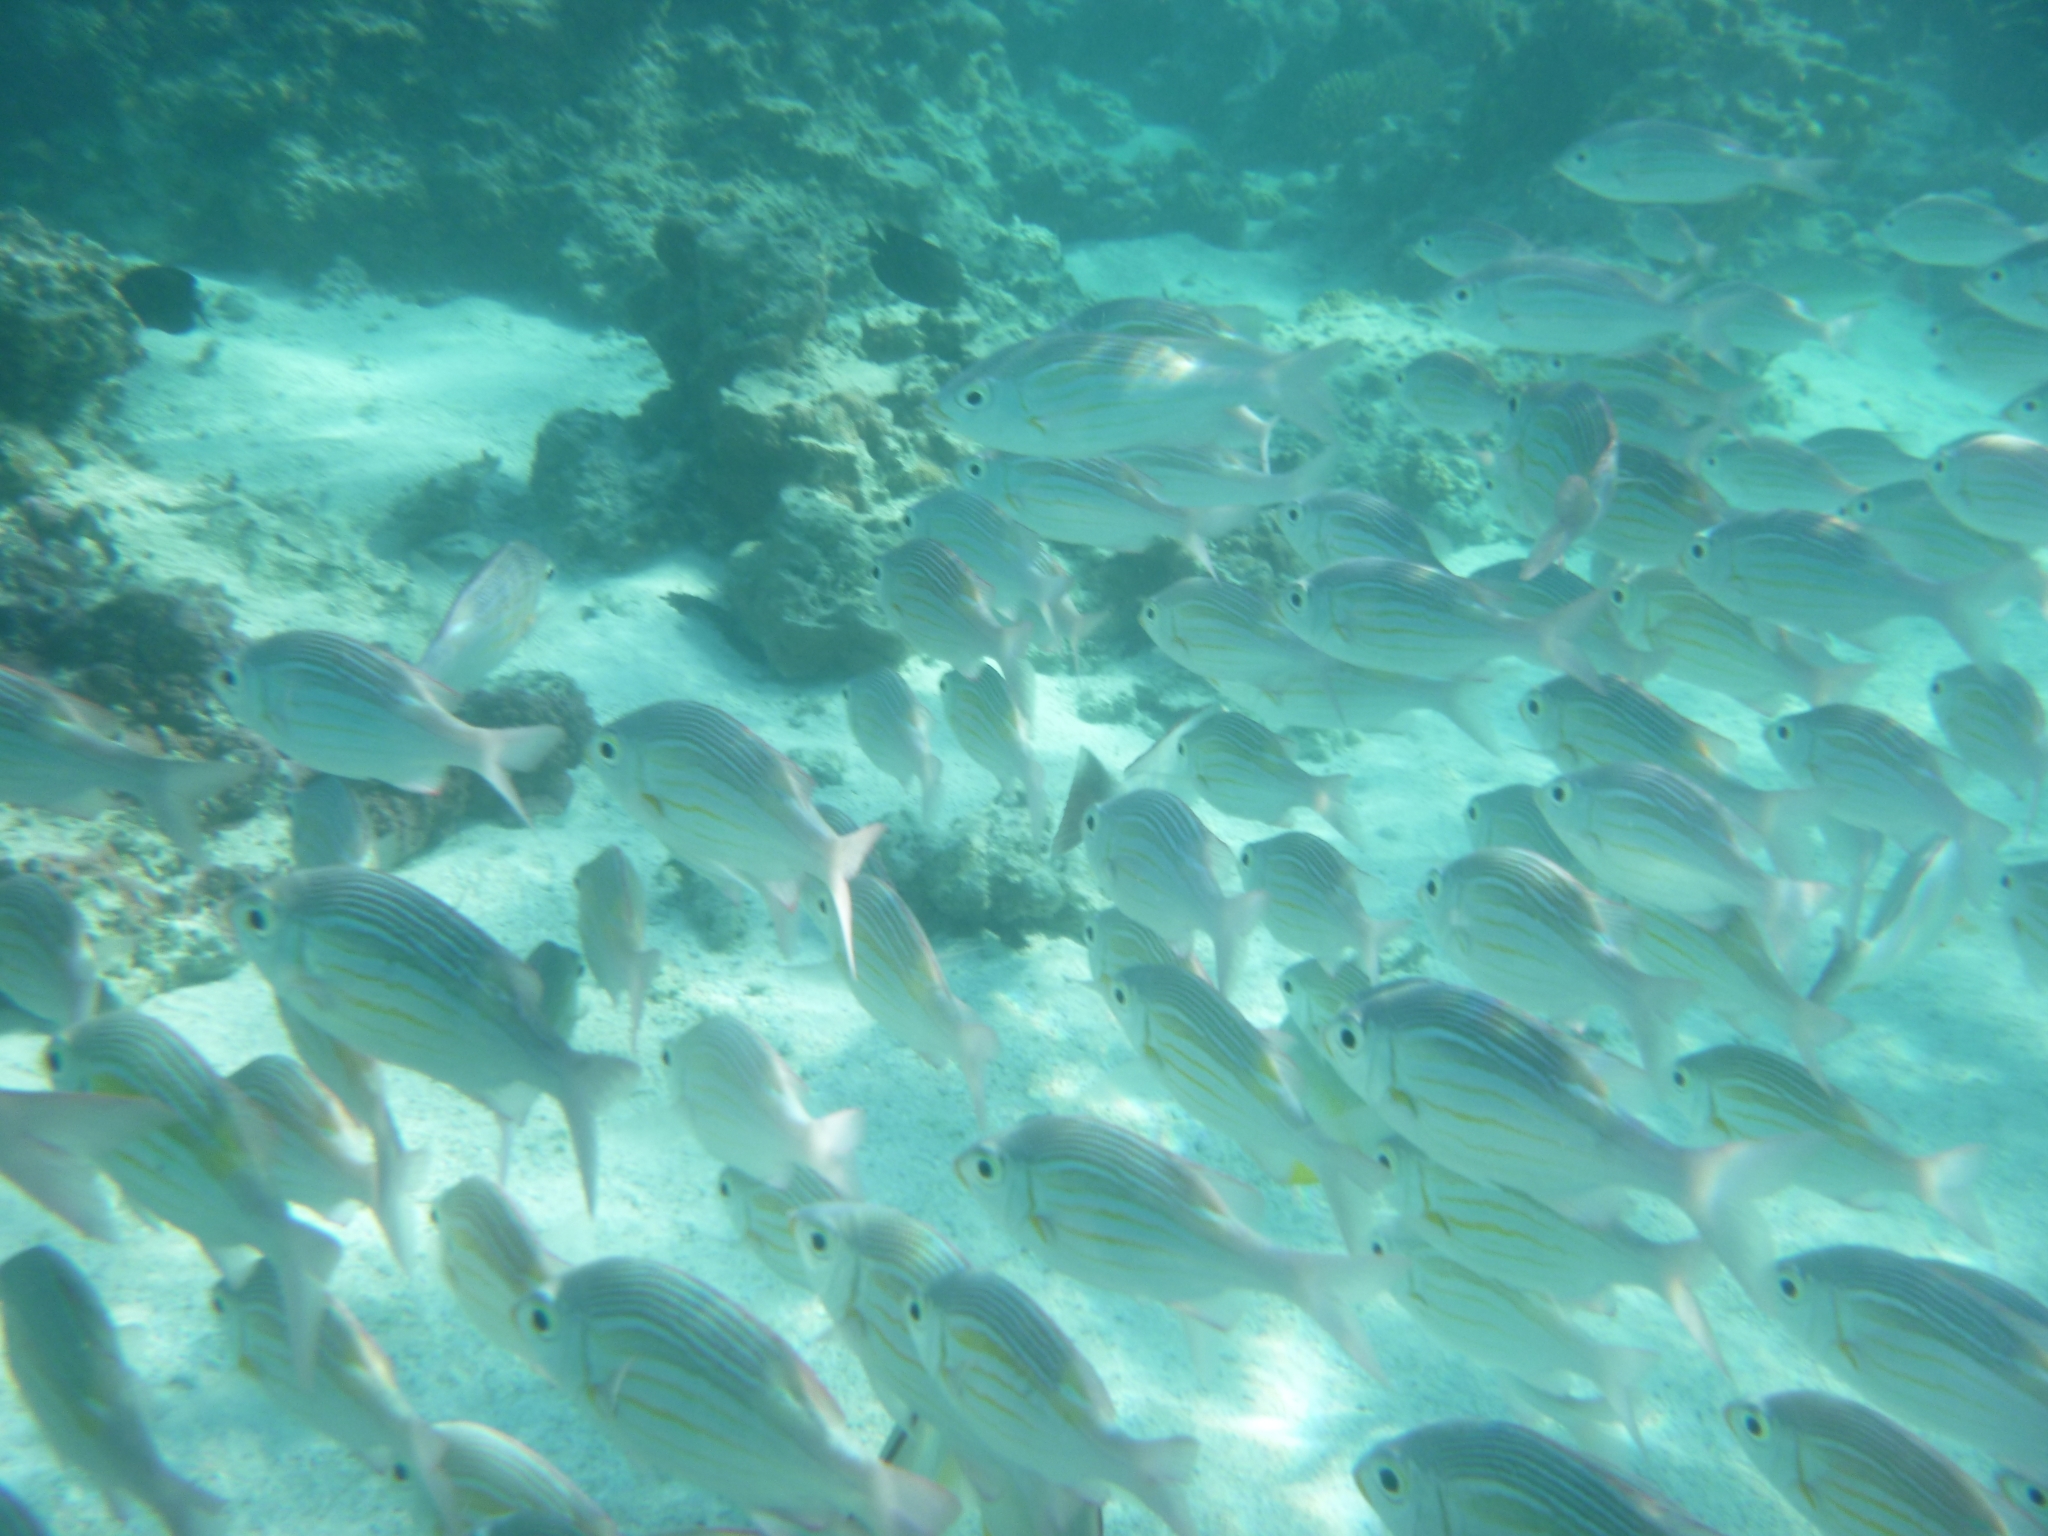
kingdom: Animalia
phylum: Chordata
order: Perciformes
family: Lethrinidae
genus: Gnathodentex
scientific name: Gnathodentex aureolineatus
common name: Gold-lined sea bream
